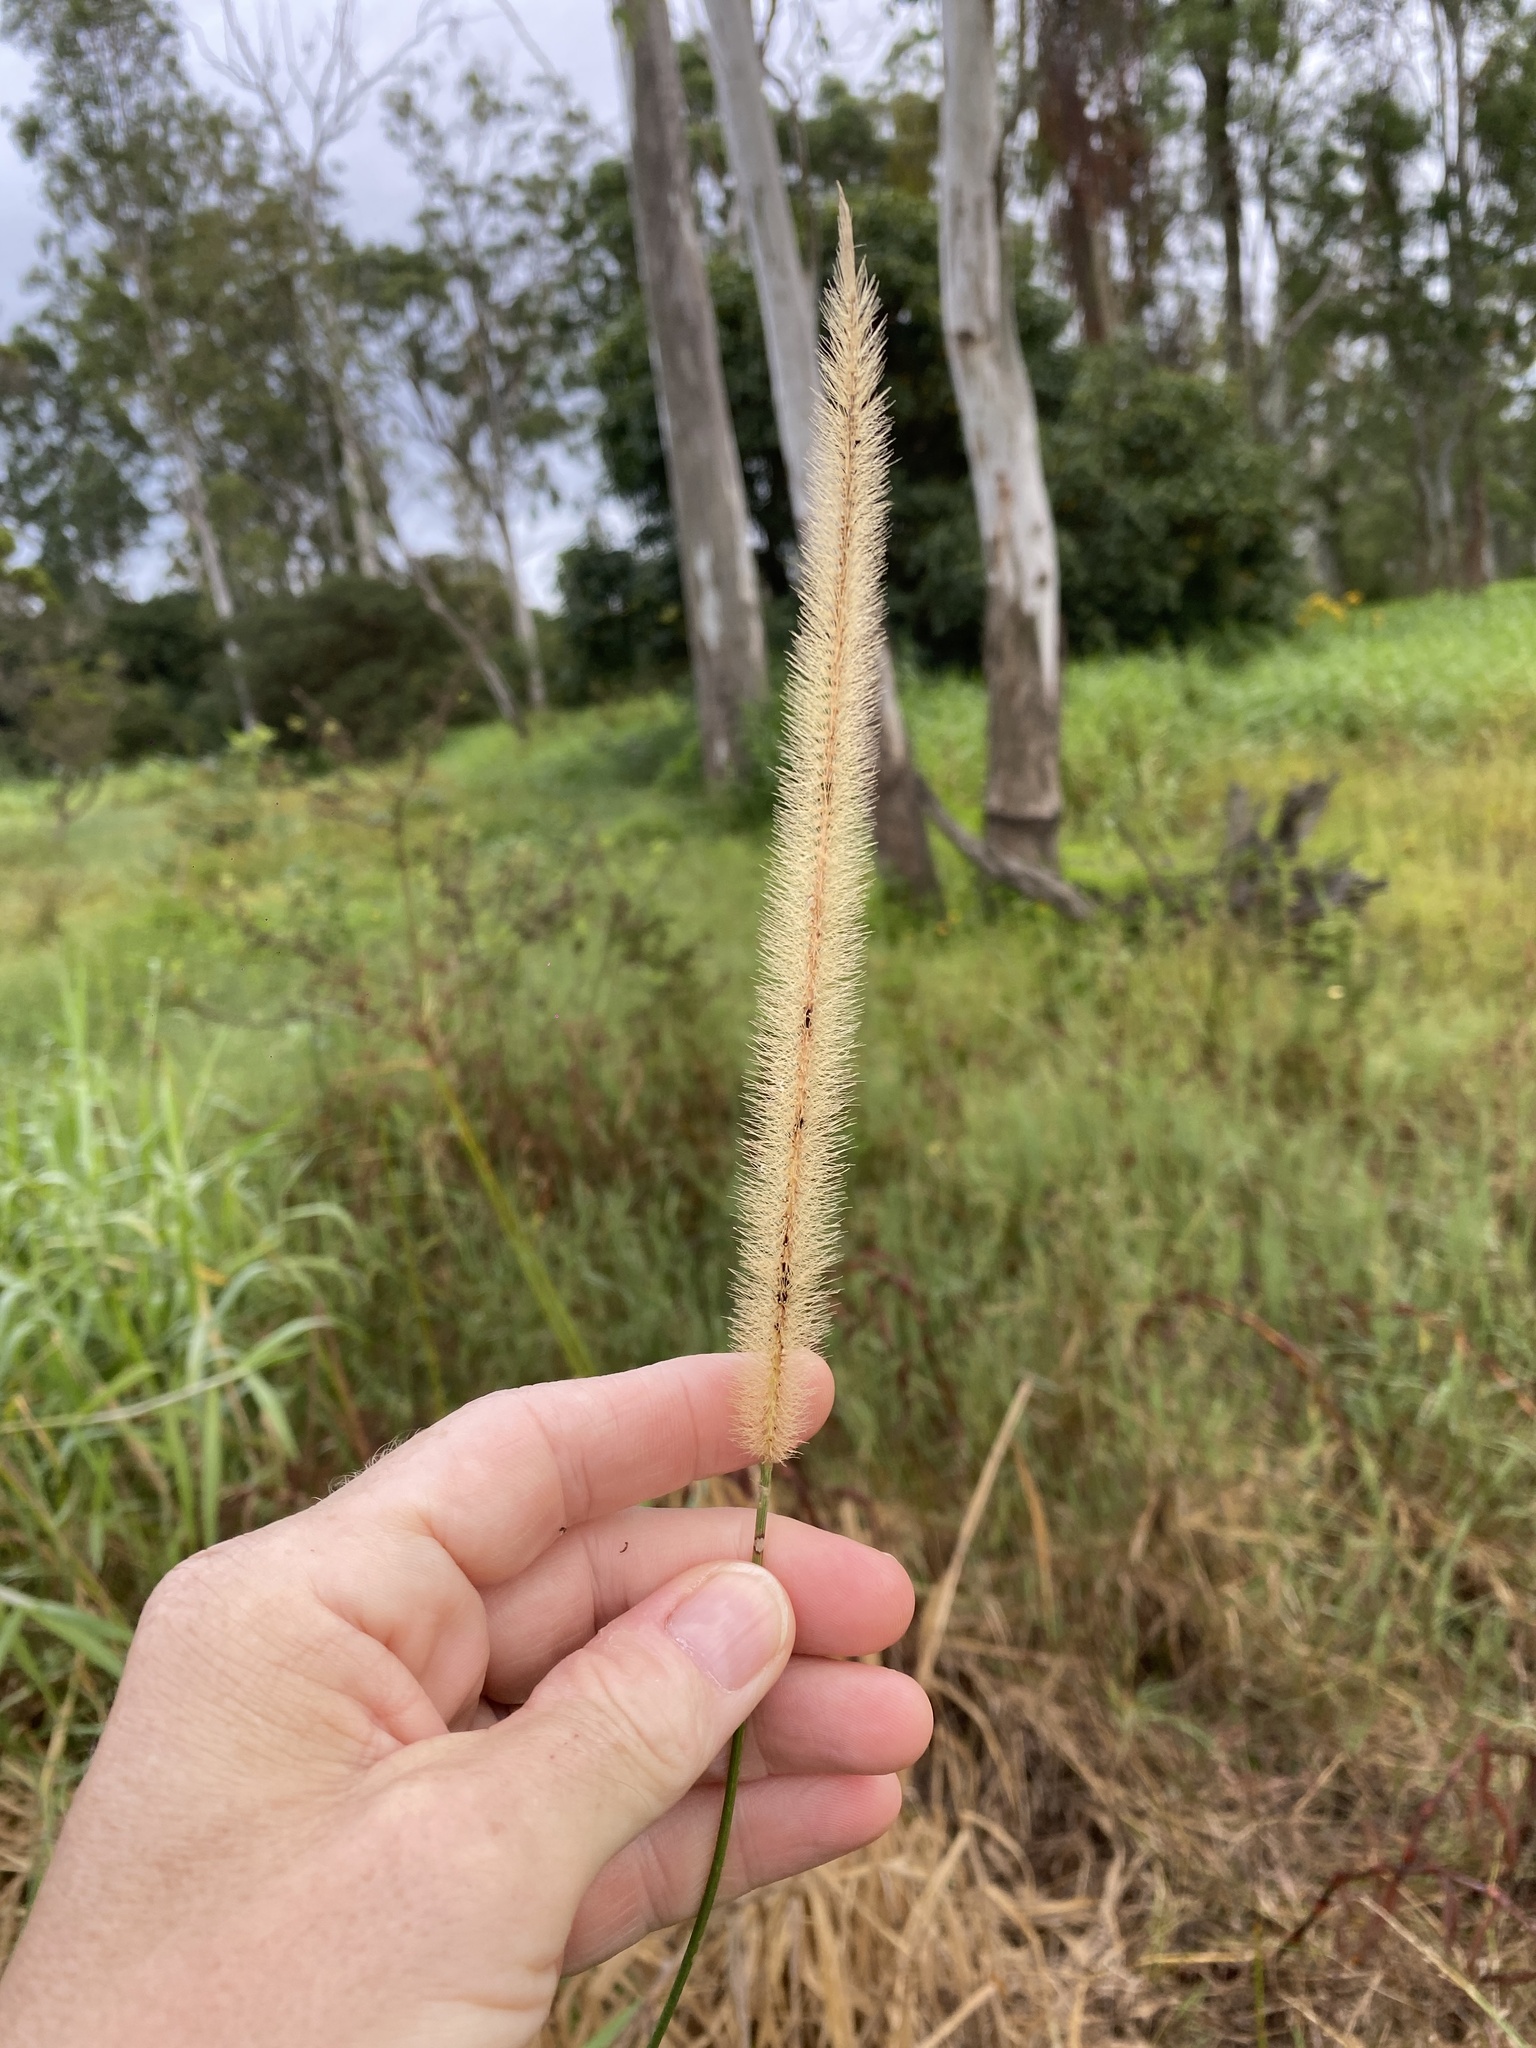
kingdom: Plantae
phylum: Tracheophyta
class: Liliopsida
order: Poales
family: Poaceae
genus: Setaria
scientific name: Setaria sphacelata
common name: African bristlegrass
